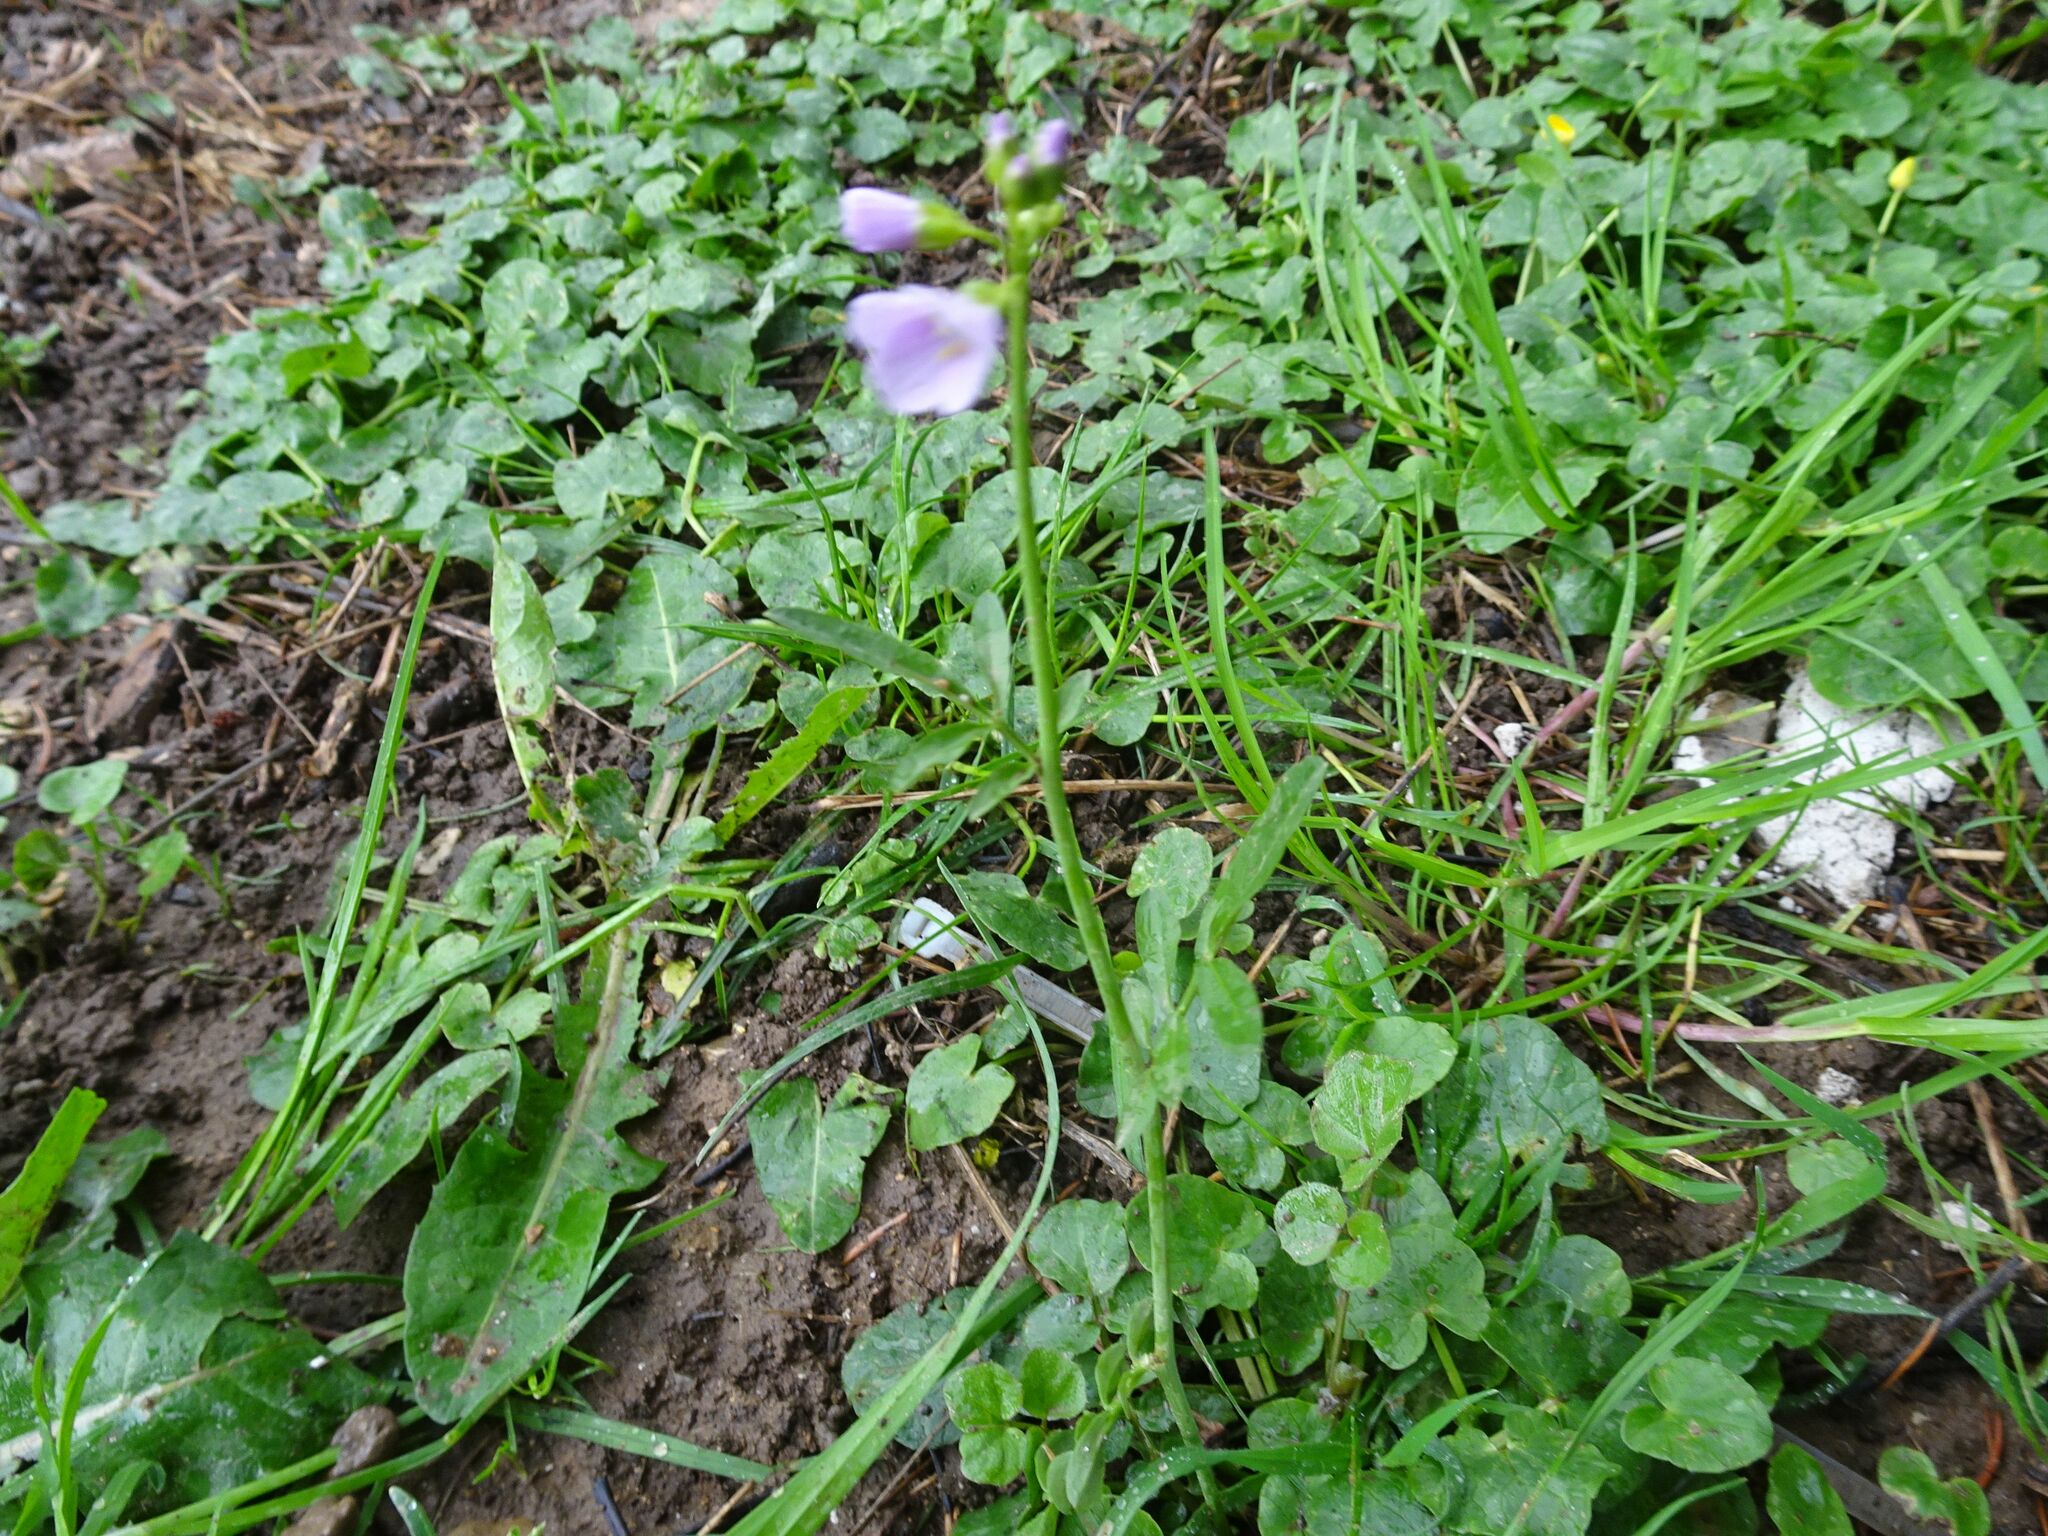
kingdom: Plantae
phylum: Tracheophyta
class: Magnoliopsida
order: Brassicales
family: Brassicaceae
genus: Cardamine
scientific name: Cardamine pratensis
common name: Cuckoo flower
